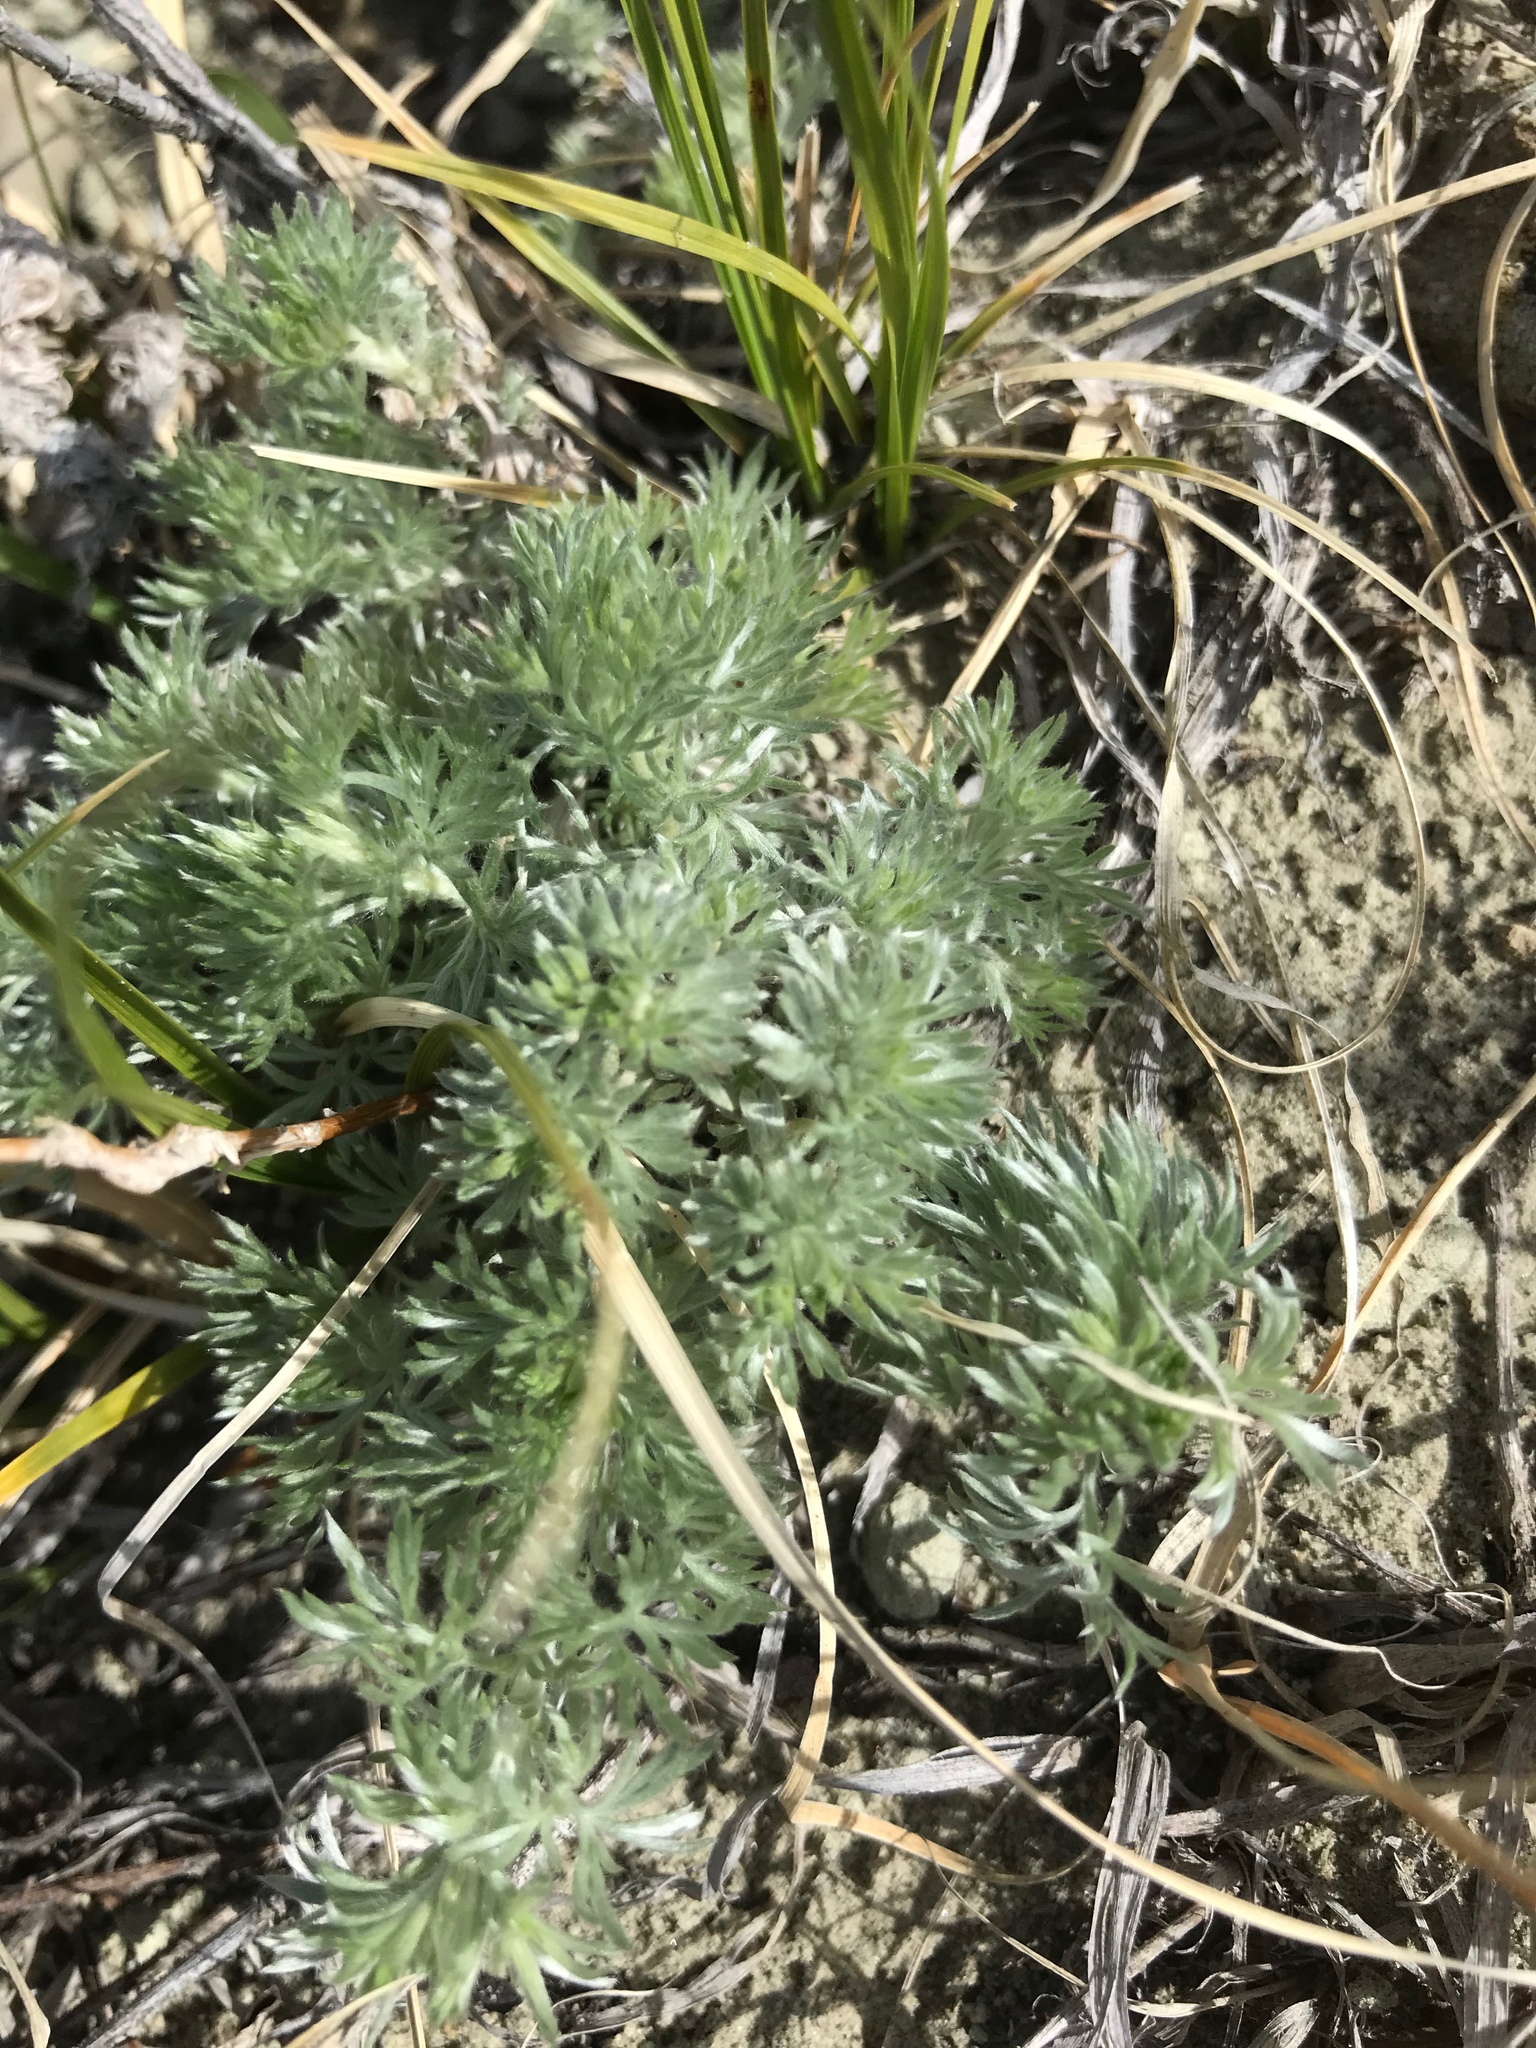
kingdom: Plantae
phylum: Tracheophyta
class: Magnoliopsida
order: Asterales
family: Asteraceae
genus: Artemisia
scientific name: Artemisia frigida
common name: Prairie sagewort
